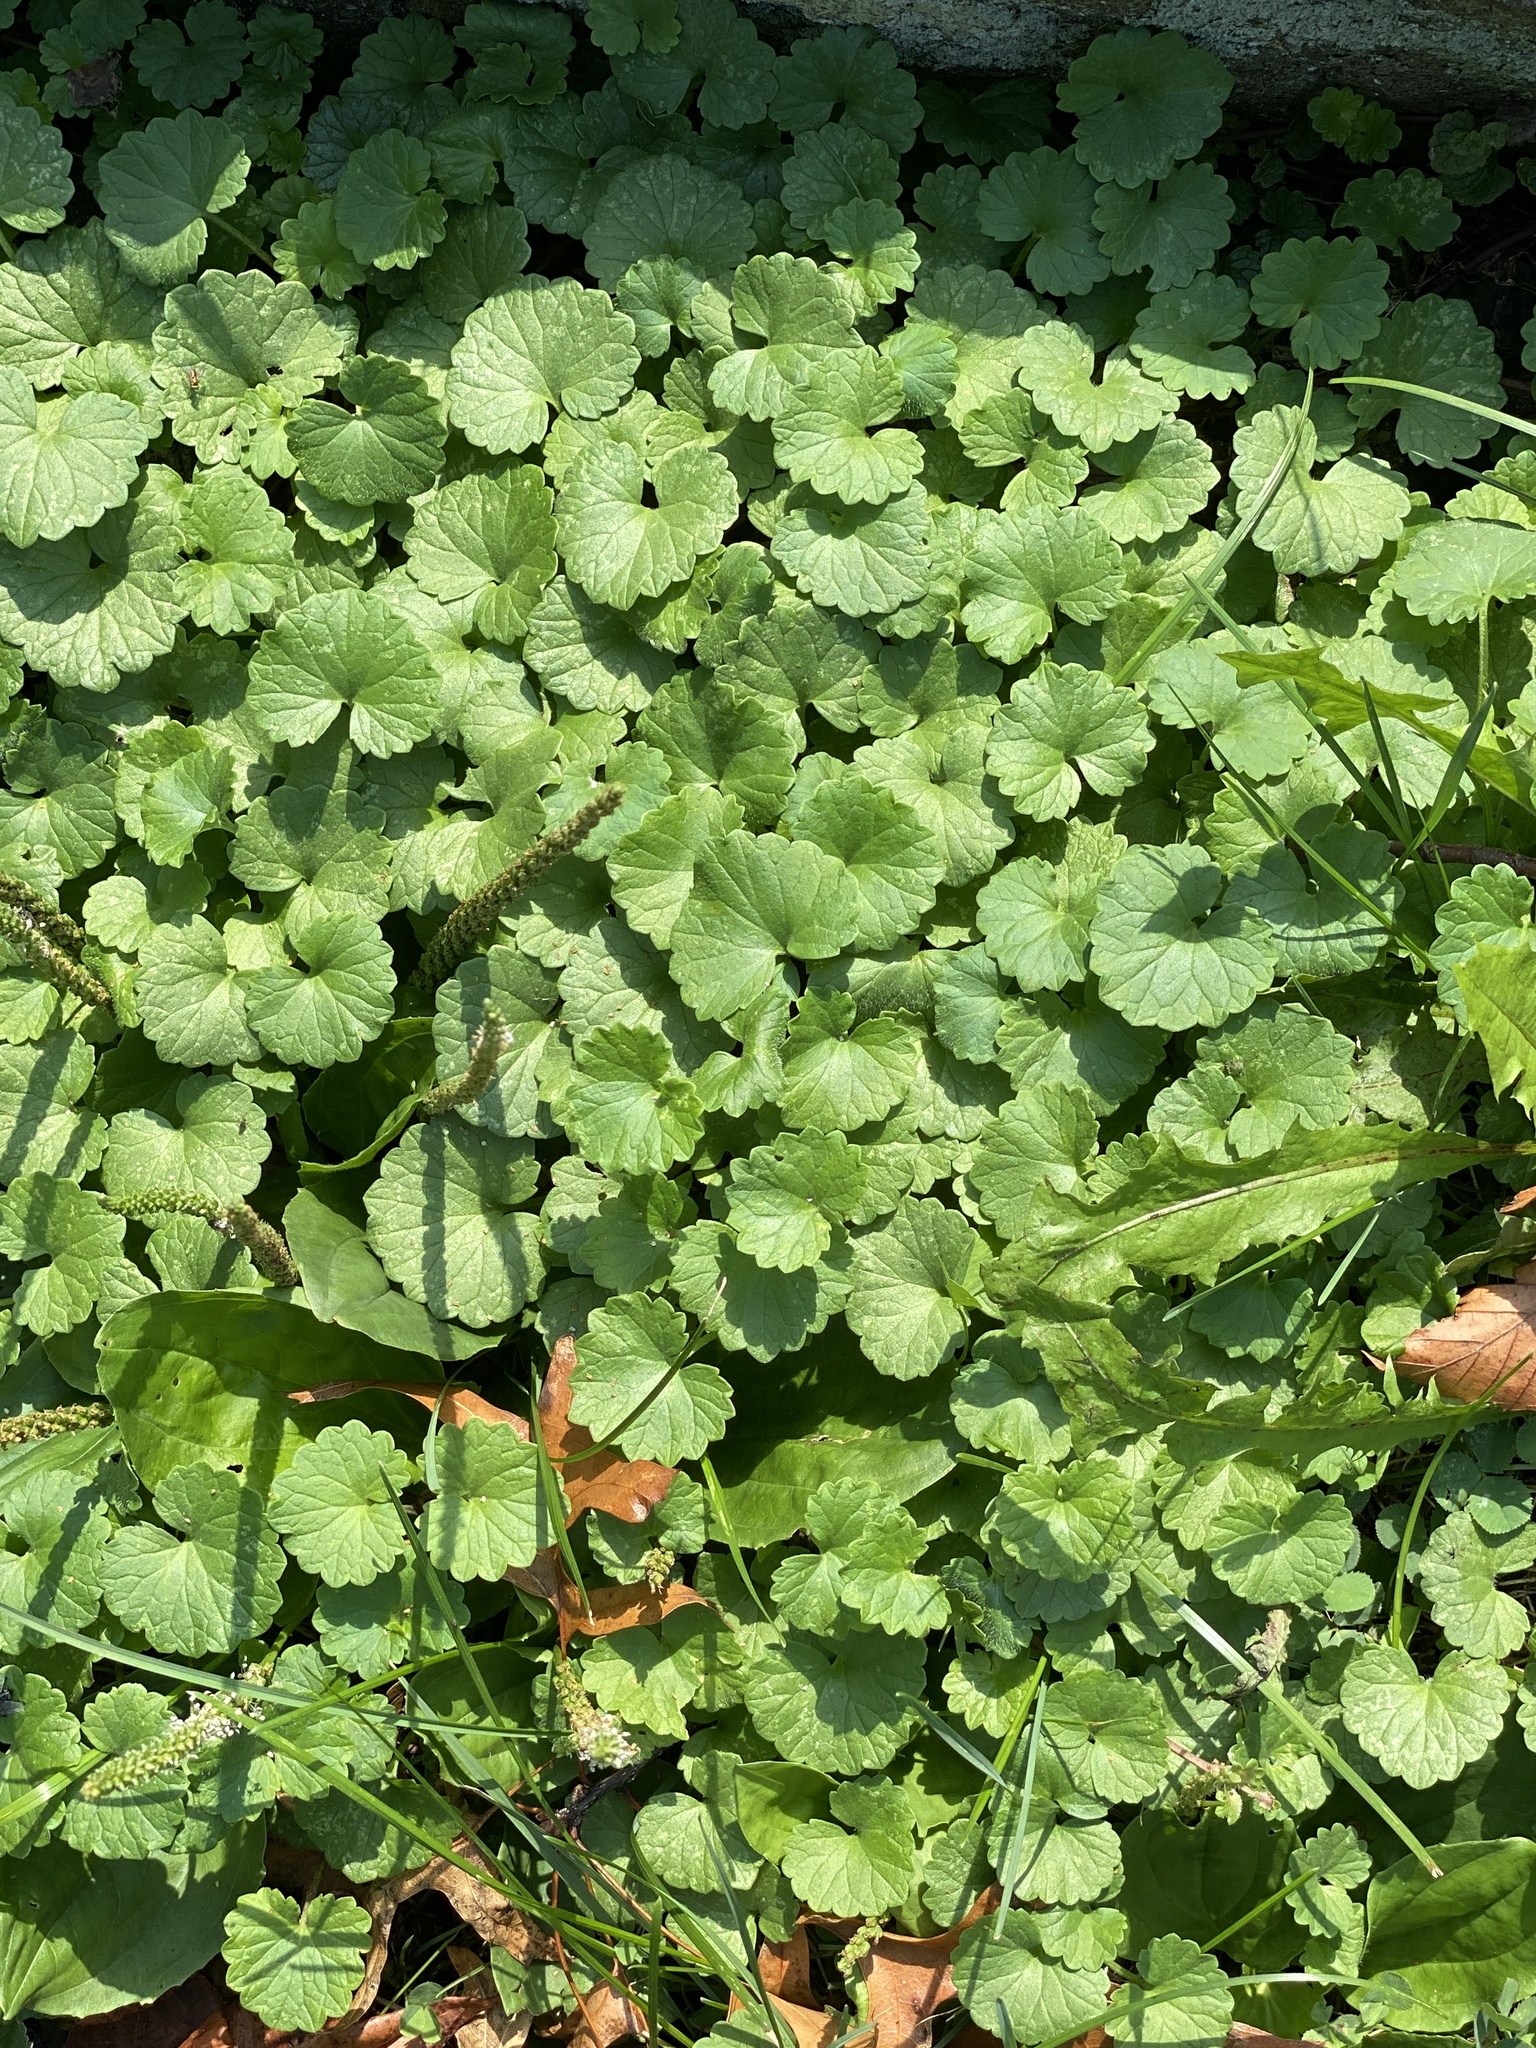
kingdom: Plantae
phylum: Tracheophyta
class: Magnoliopsida
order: Lamiales
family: Lamiaceae
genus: Glechoma
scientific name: Glechoma hederacea
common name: Ground ivy
